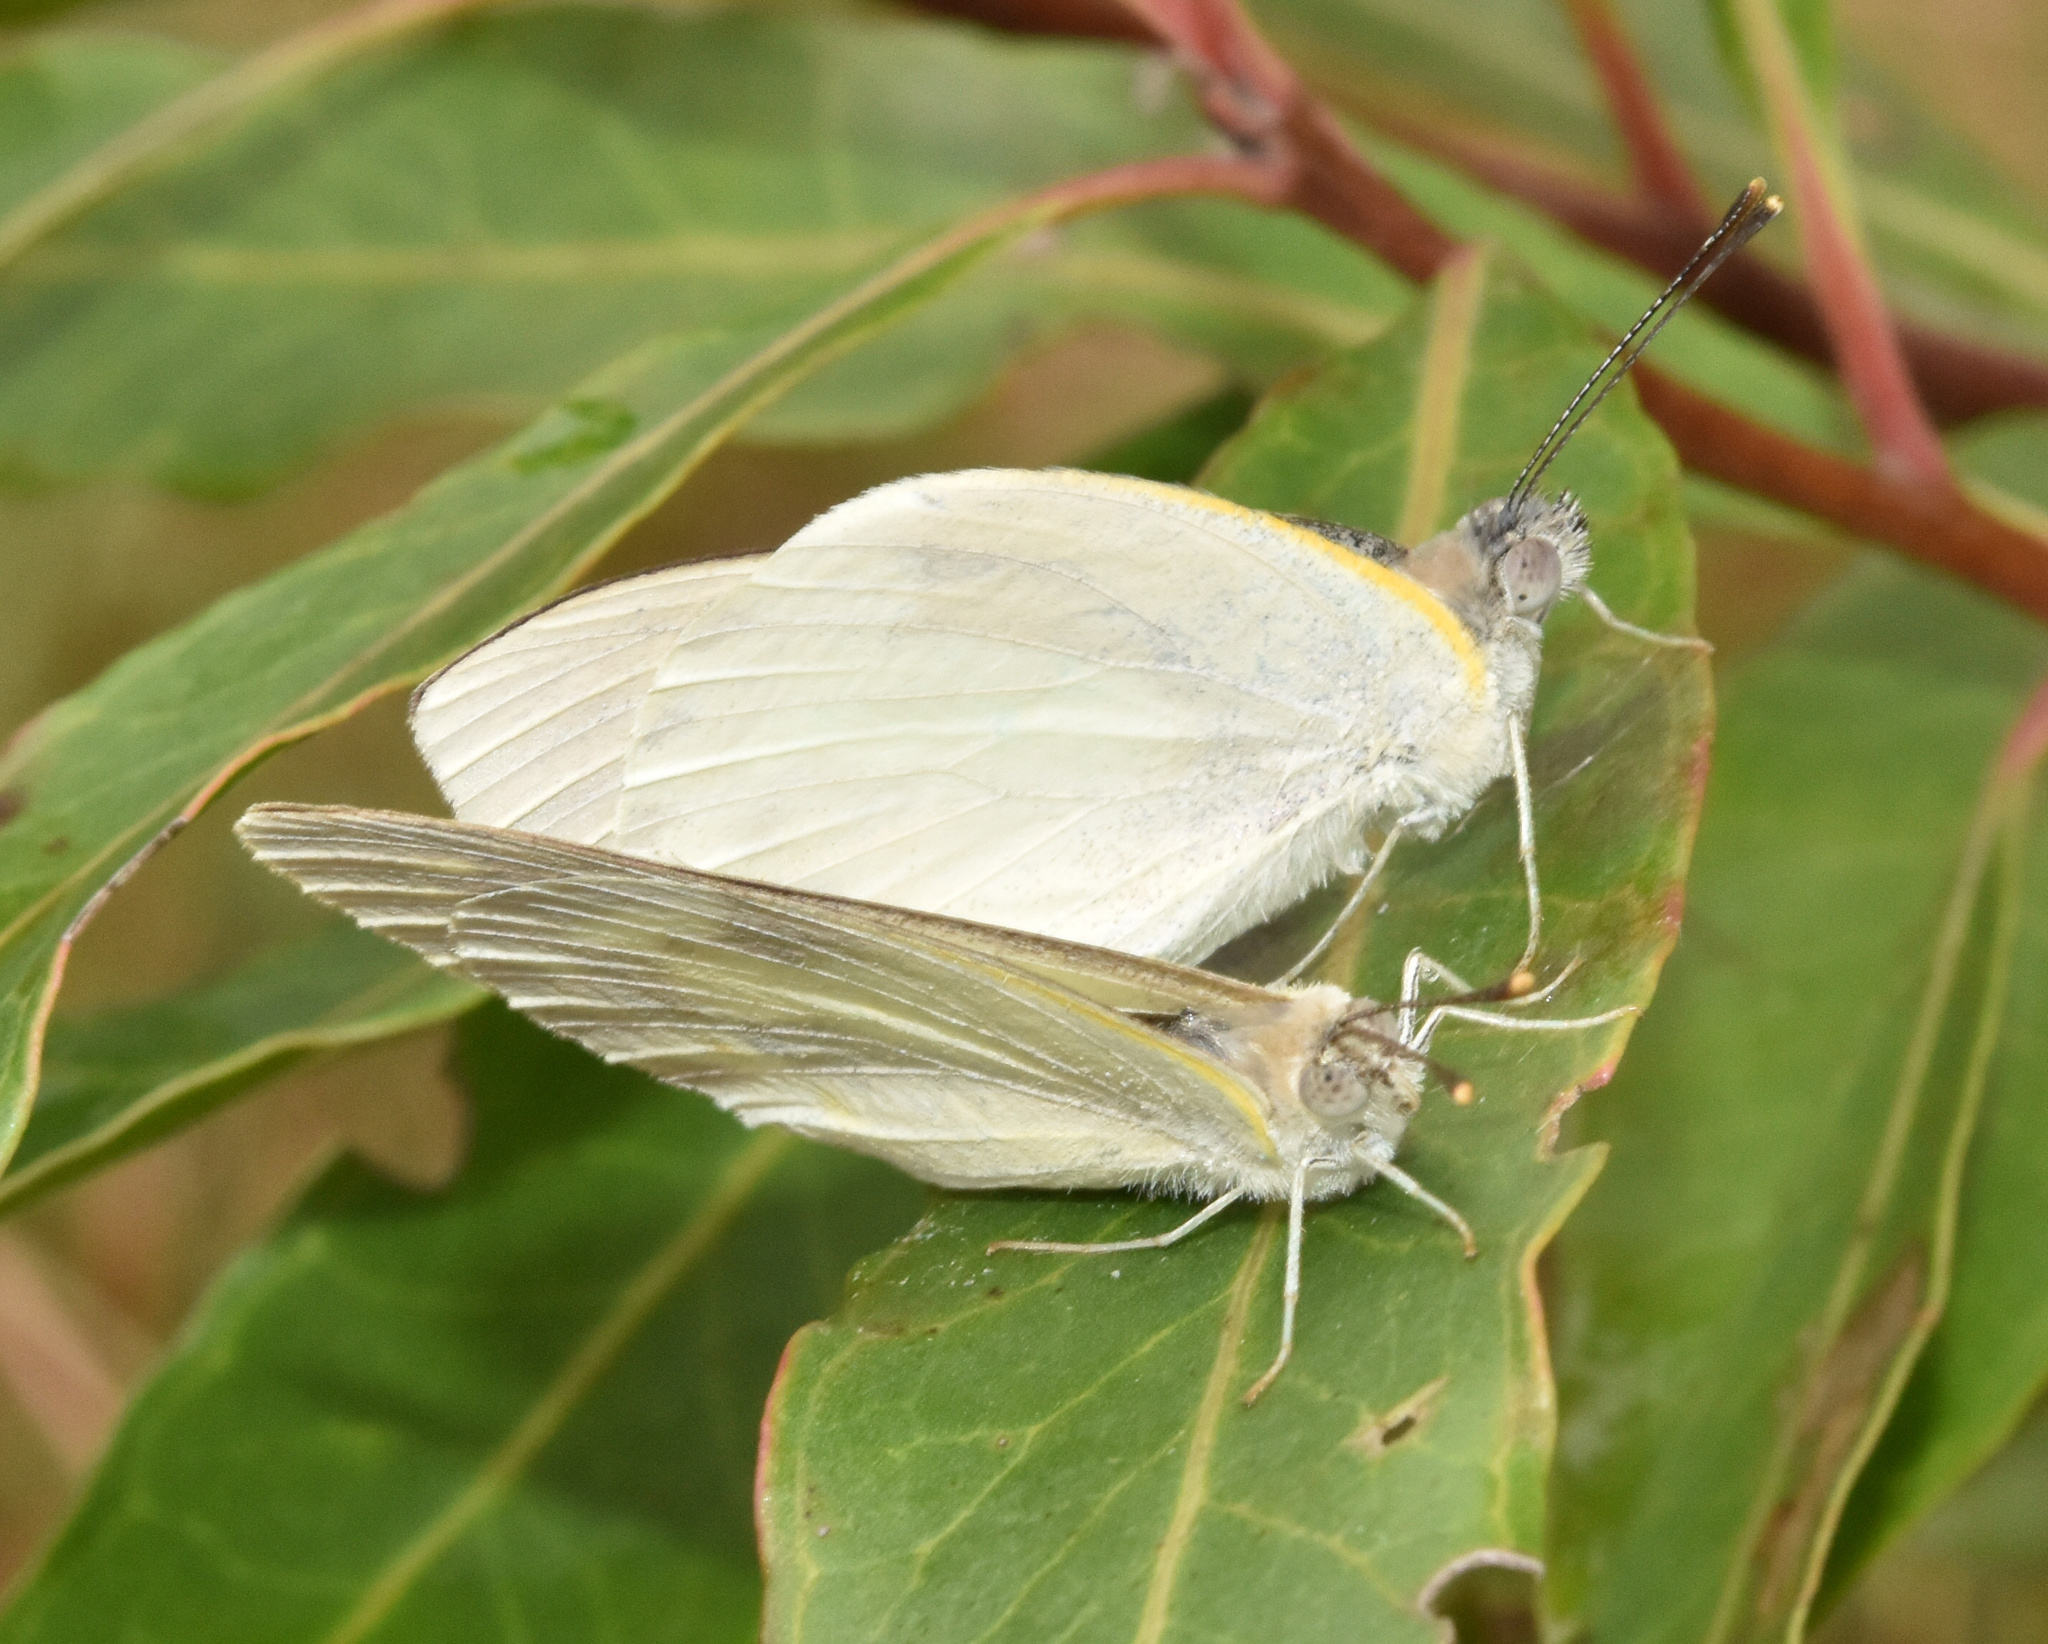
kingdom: Animalia
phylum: Arthropoda
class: Insecta
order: Lepidoptera
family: Pieridae
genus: Dixeia
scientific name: Dixeia pigea
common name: Ant-heap small white
